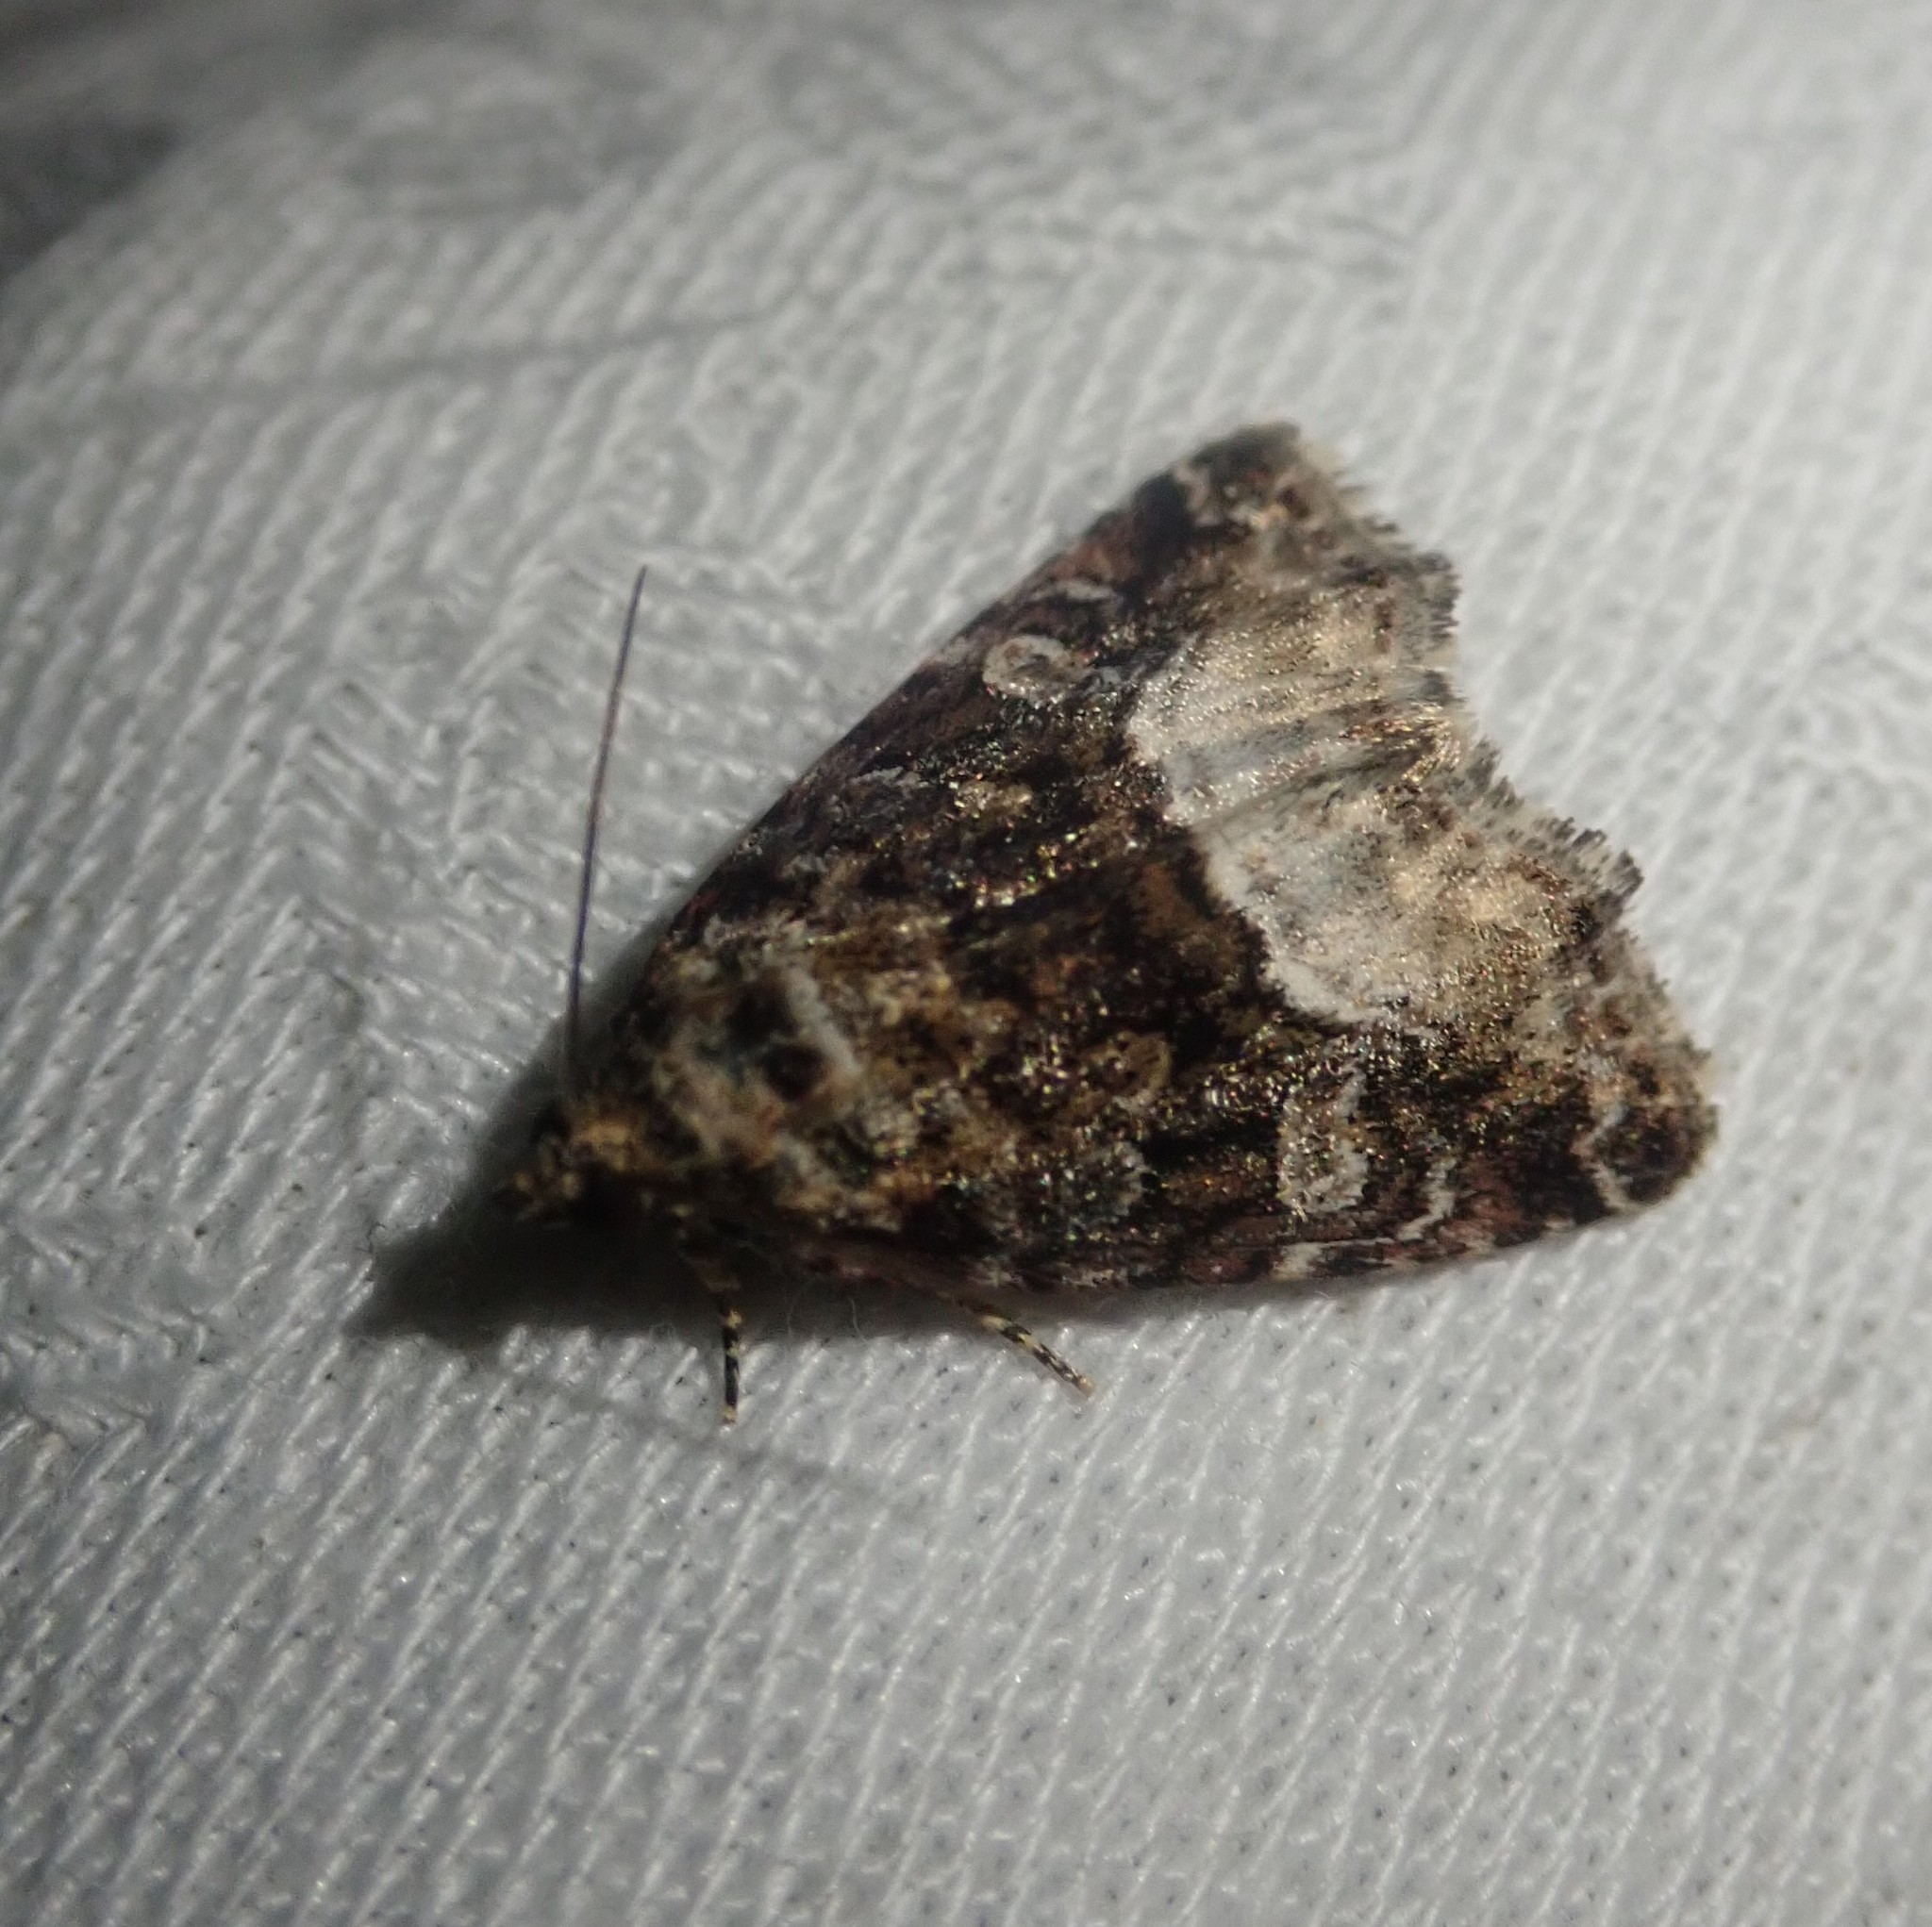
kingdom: Animalia
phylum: Arthropoda
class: Insecta
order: Lepidoptera
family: Noctuidae
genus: Deltote
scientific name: Deltote pygarga
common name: Marbled white spot
